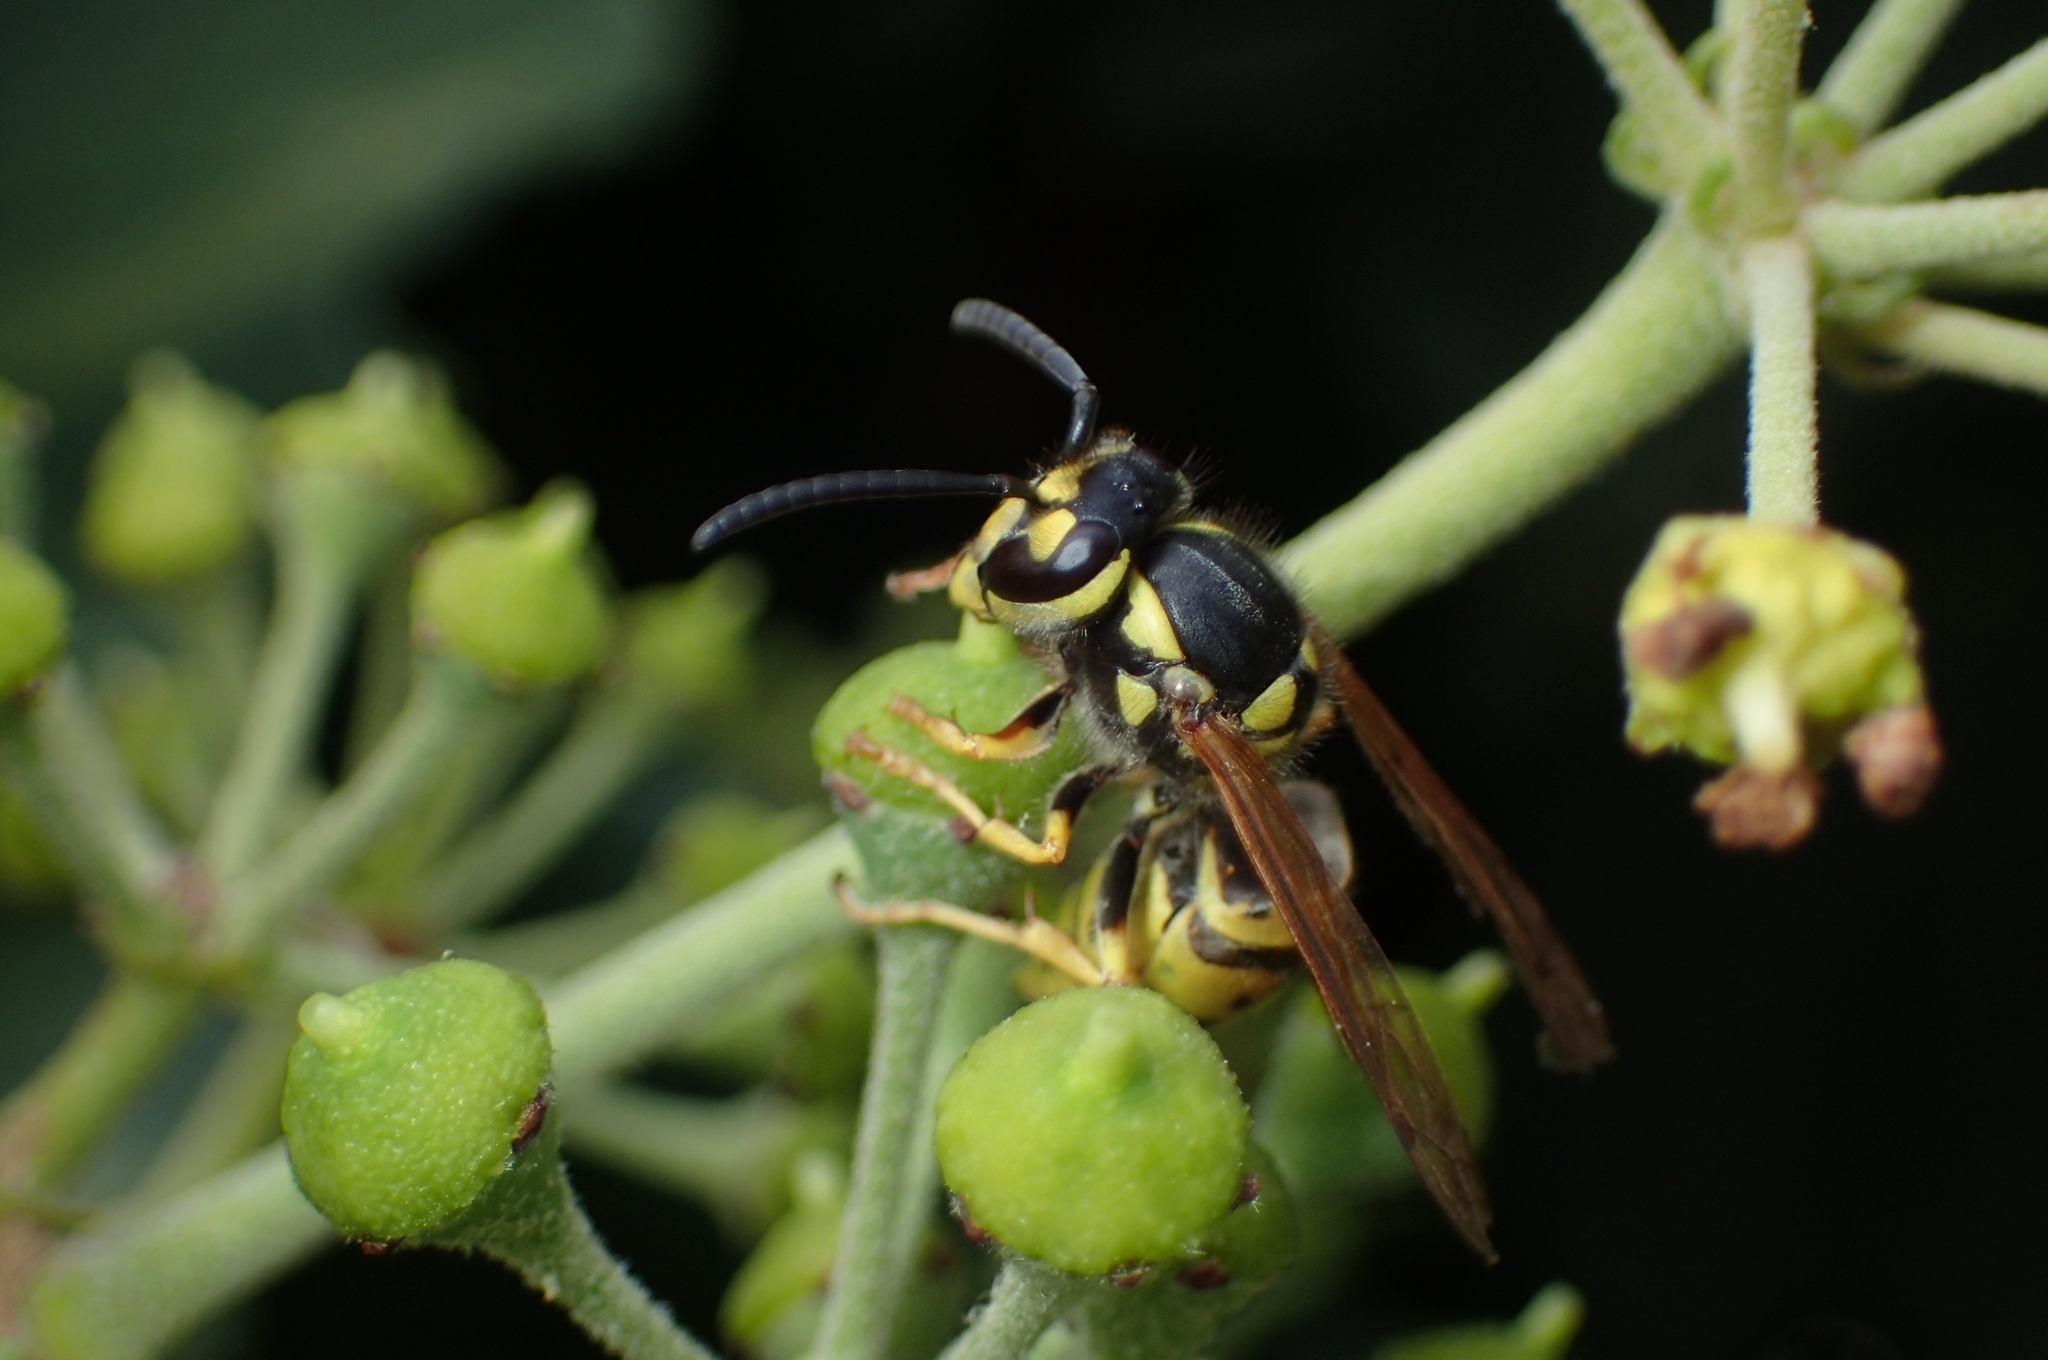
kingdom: Animalia
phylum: Arthropoda
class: Insecta
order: Hymenoptera
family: Vespidae
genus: Vespula
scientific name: Vespula germanica
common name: German wasp
